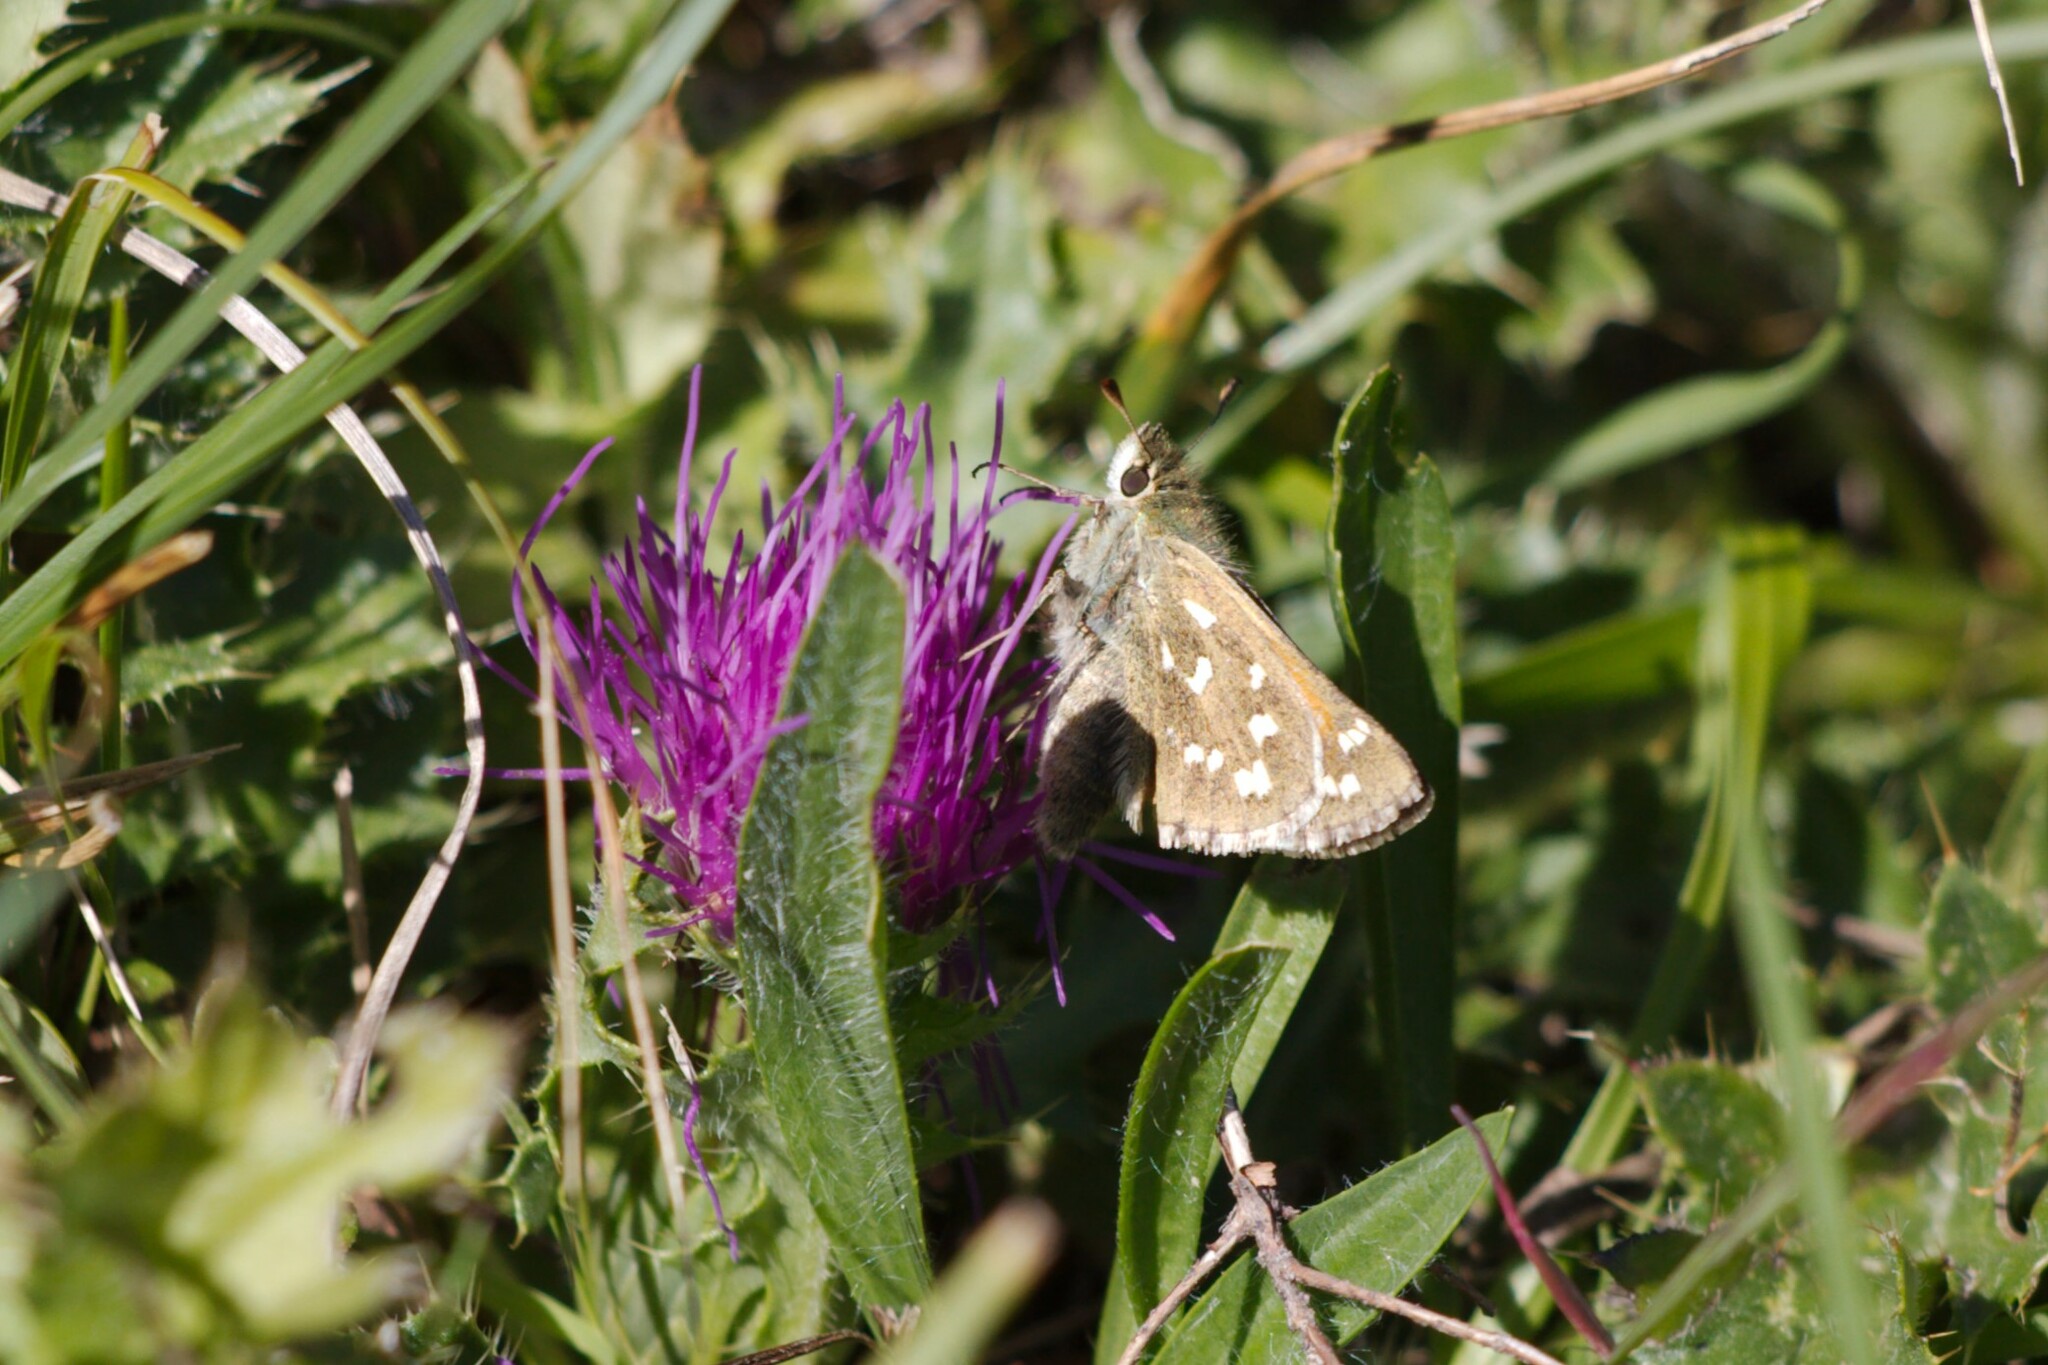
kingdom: Animalia
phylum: Arthropoda
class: Insecta
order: Lepidoptera
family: Hesperiidae
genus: Hesperia
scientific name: Hesperia comma
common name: Common branded skipper
